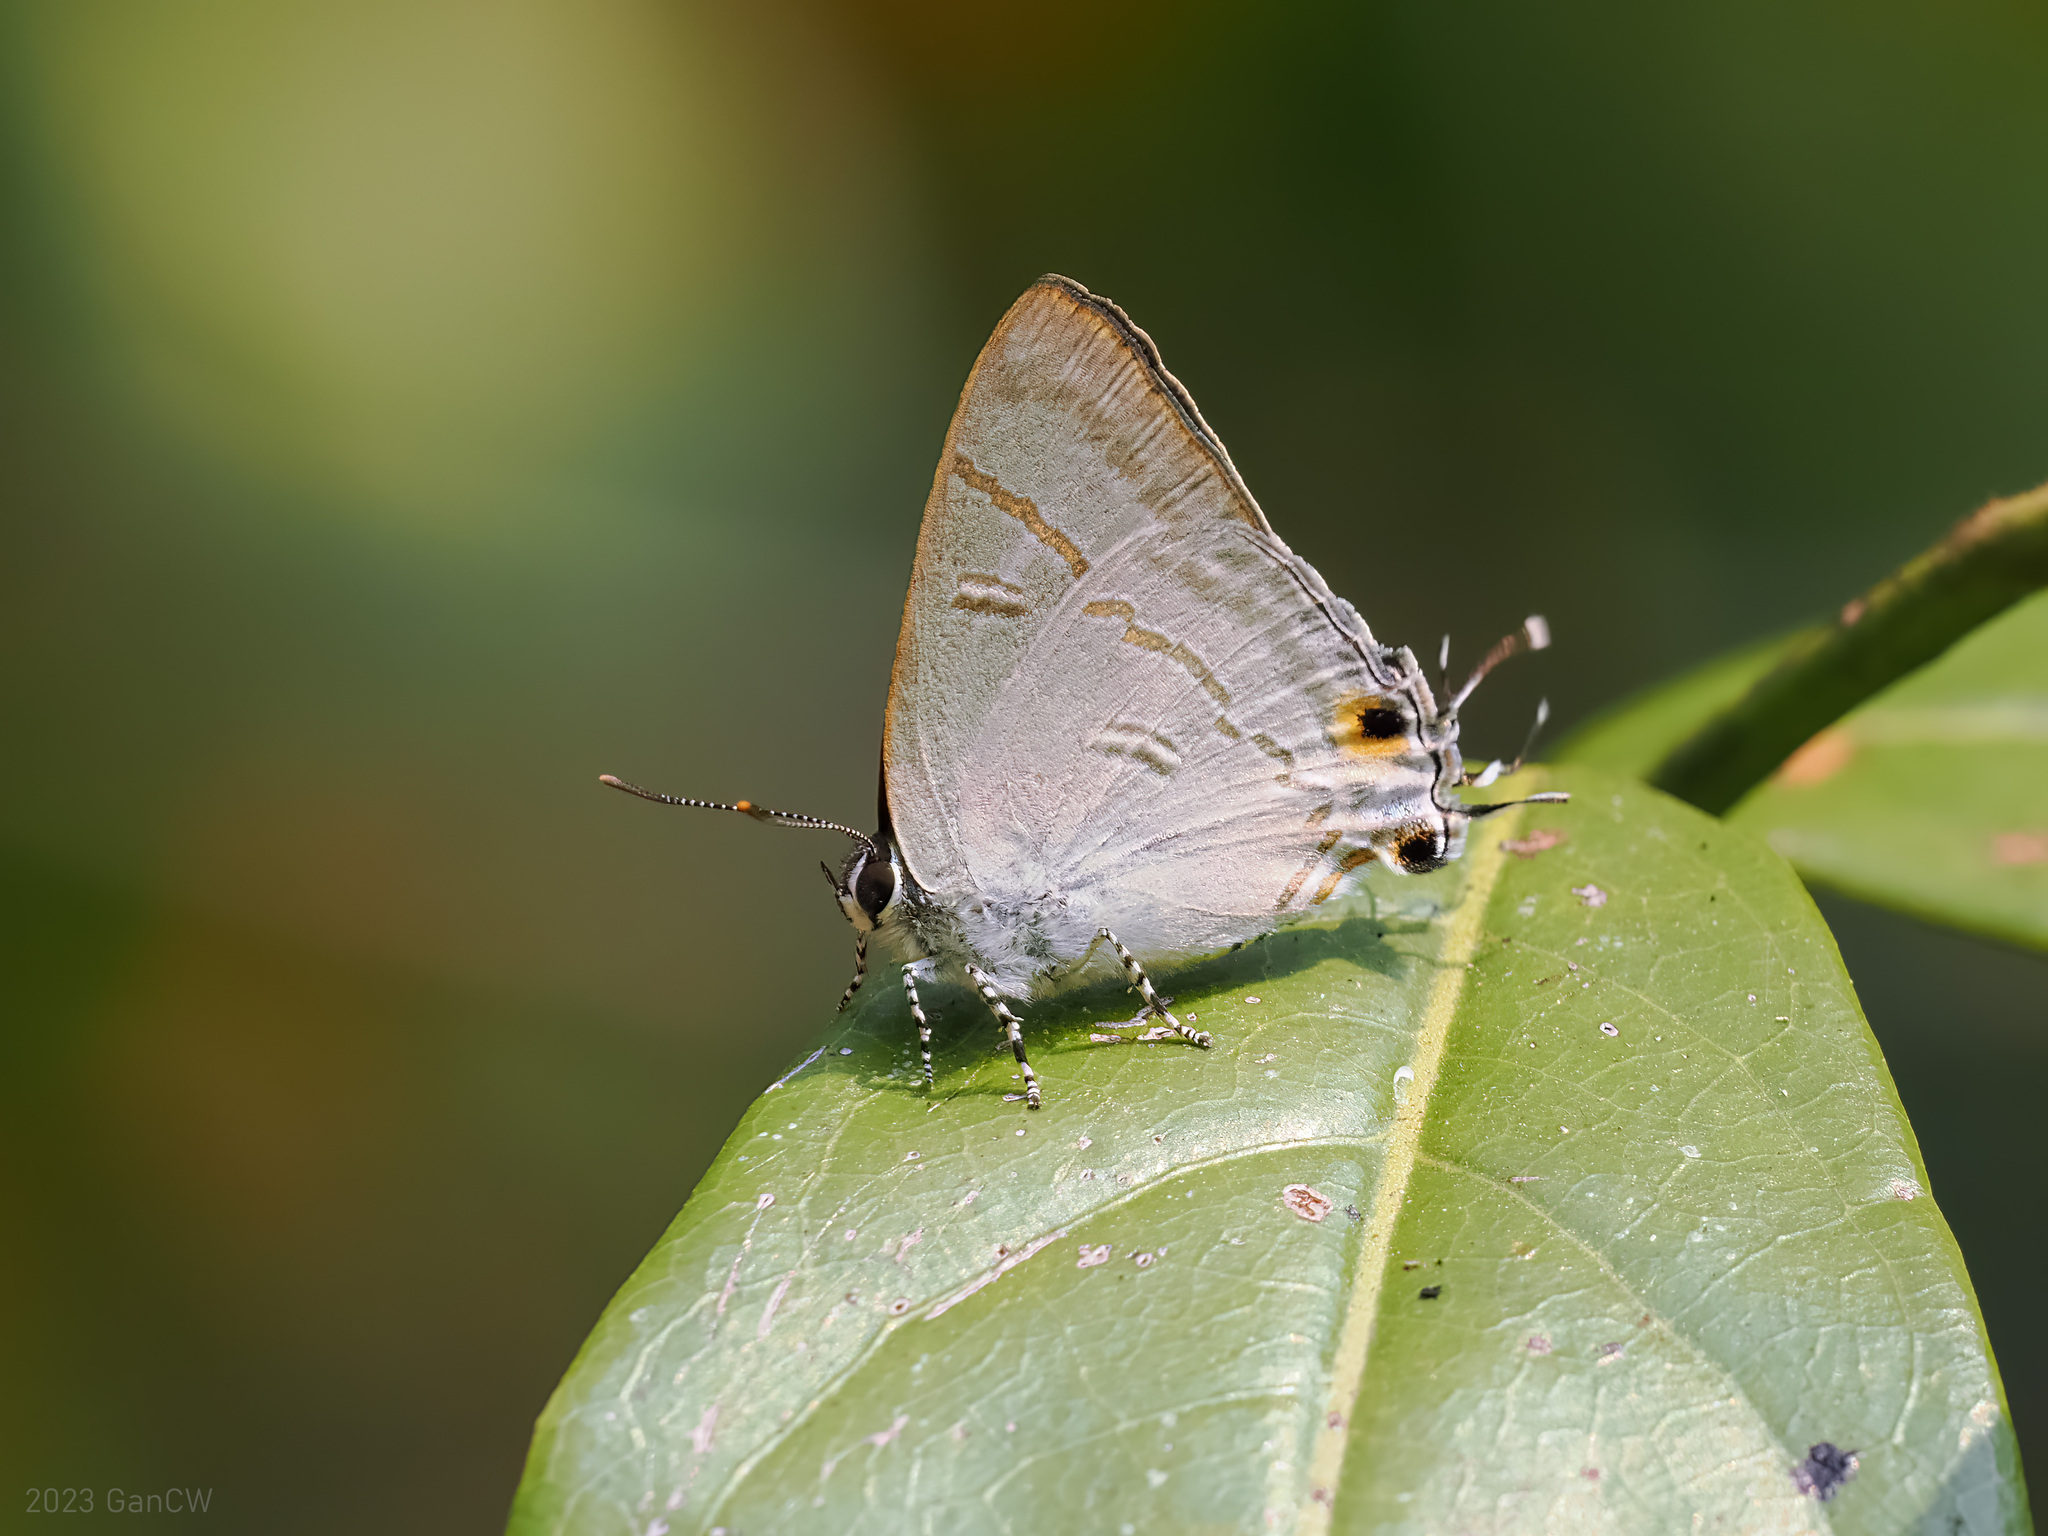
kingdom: Animalia
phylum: Arthropoda
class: Insecta
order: Lepidoptera
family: Lycaenidae
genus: Hypolycaena
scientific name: Hypolycaena erylus
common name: Common tit
